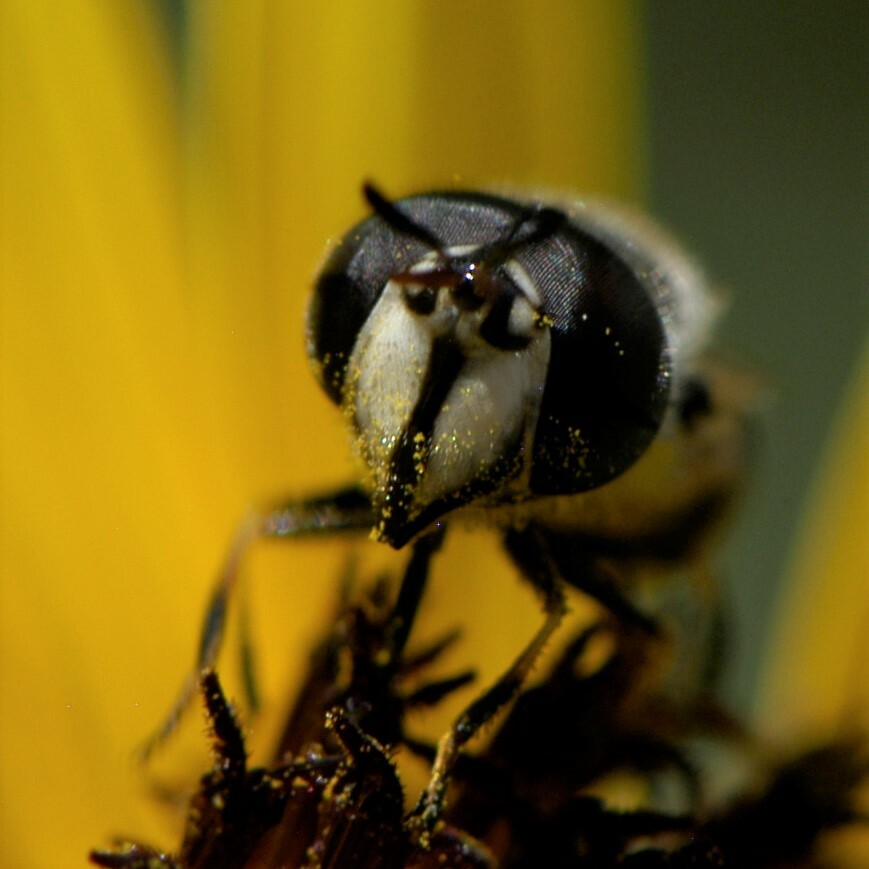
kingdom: Animalia
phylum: Arthropoda
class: Insecta
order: Diptera
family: Syrphidae
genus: Copestylum
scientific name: Copestylum caudatum
